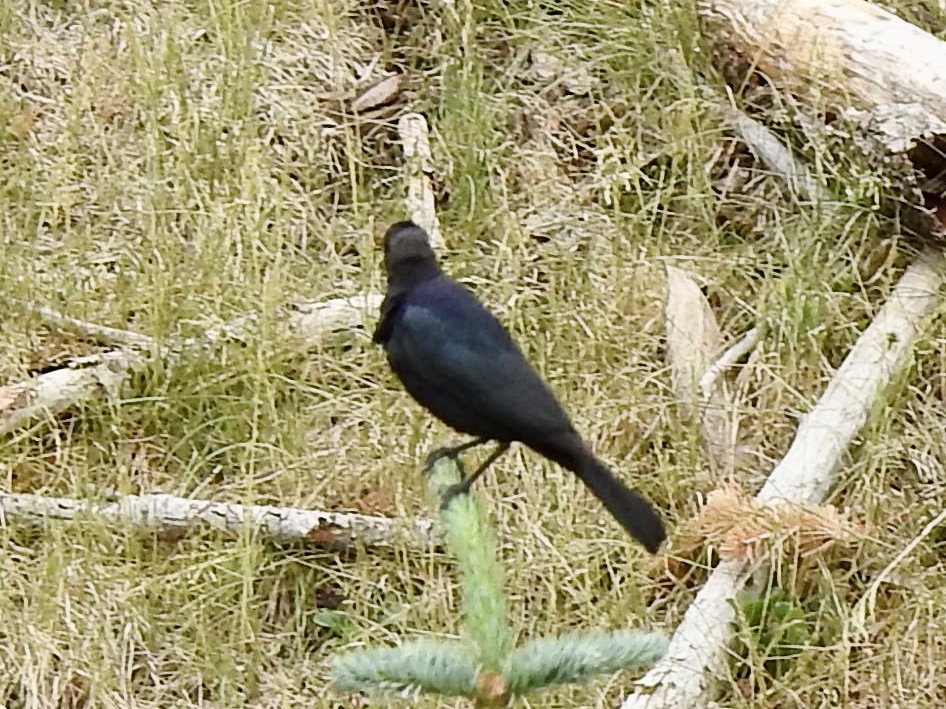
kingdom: Animalia
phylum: Chordata
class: Aves
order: Passeriformes
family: Icteridae
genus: Euphagus
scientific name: Euphagus cyanocephalus
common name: Brewer's blackbird
